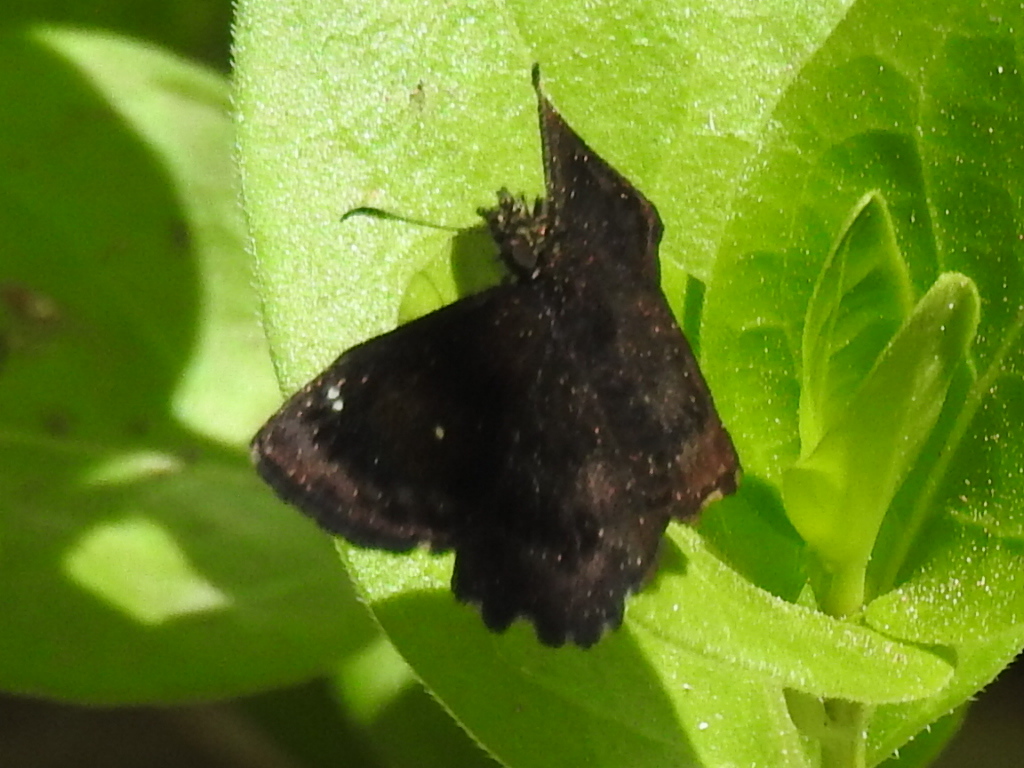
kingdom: Animalia
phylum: Arthropoda
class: Insecta
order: Lepidoptera
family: Hesperiidae
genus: Staphylus
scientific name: Staphylus mazans
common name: Mazans scallopwing
